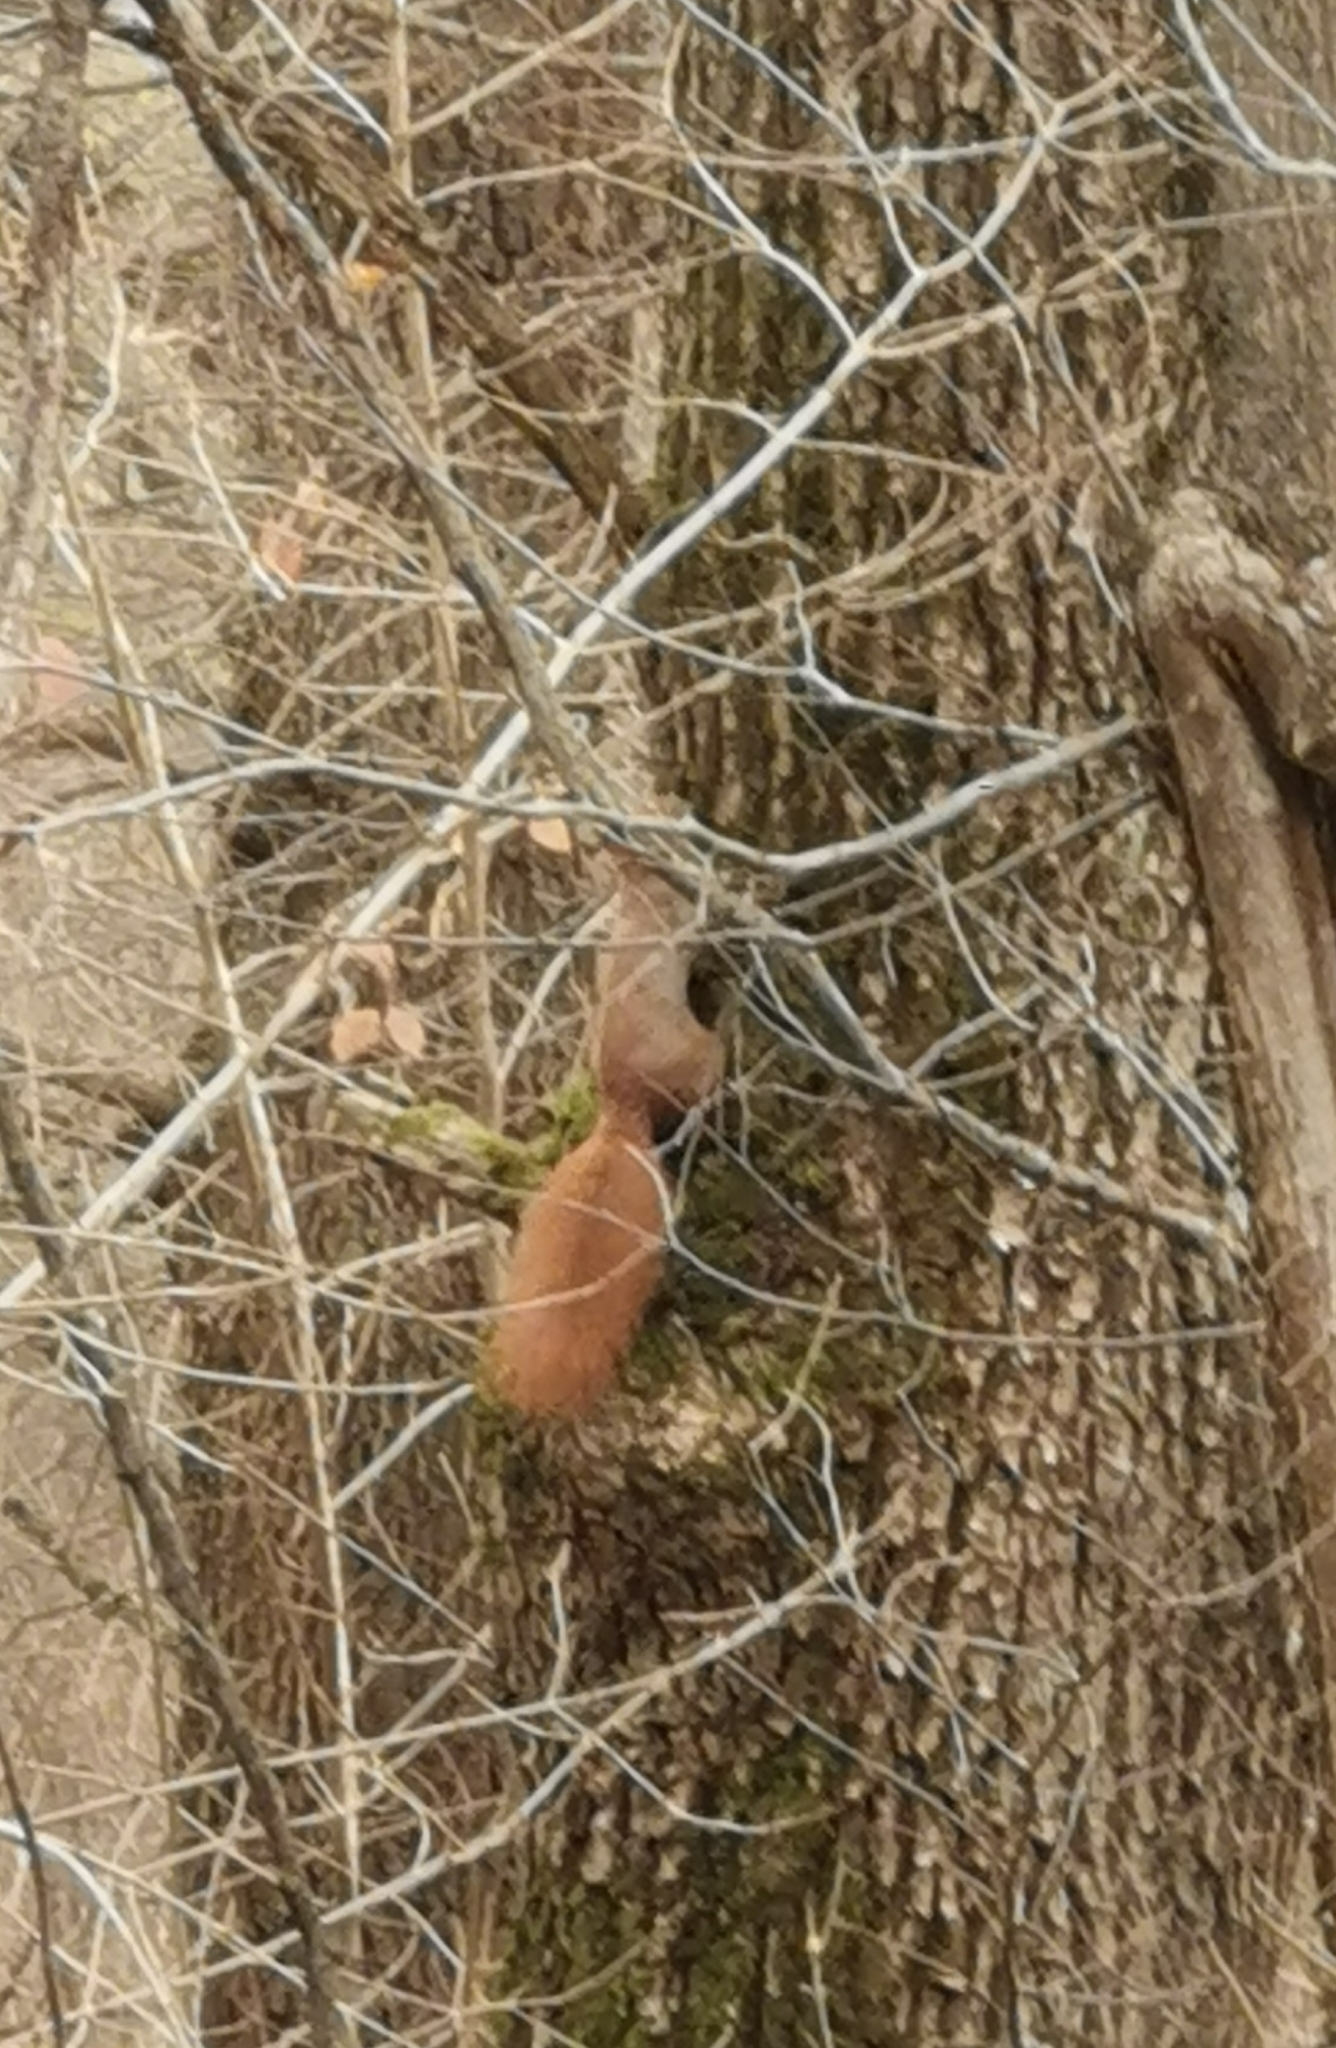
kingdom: Animalia
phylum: Chordata
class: Mammalia
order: Rodentia
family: Sciuridae
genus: Sciurus
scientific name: Sciurus vulgaris
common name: Eurasian red squirrel
